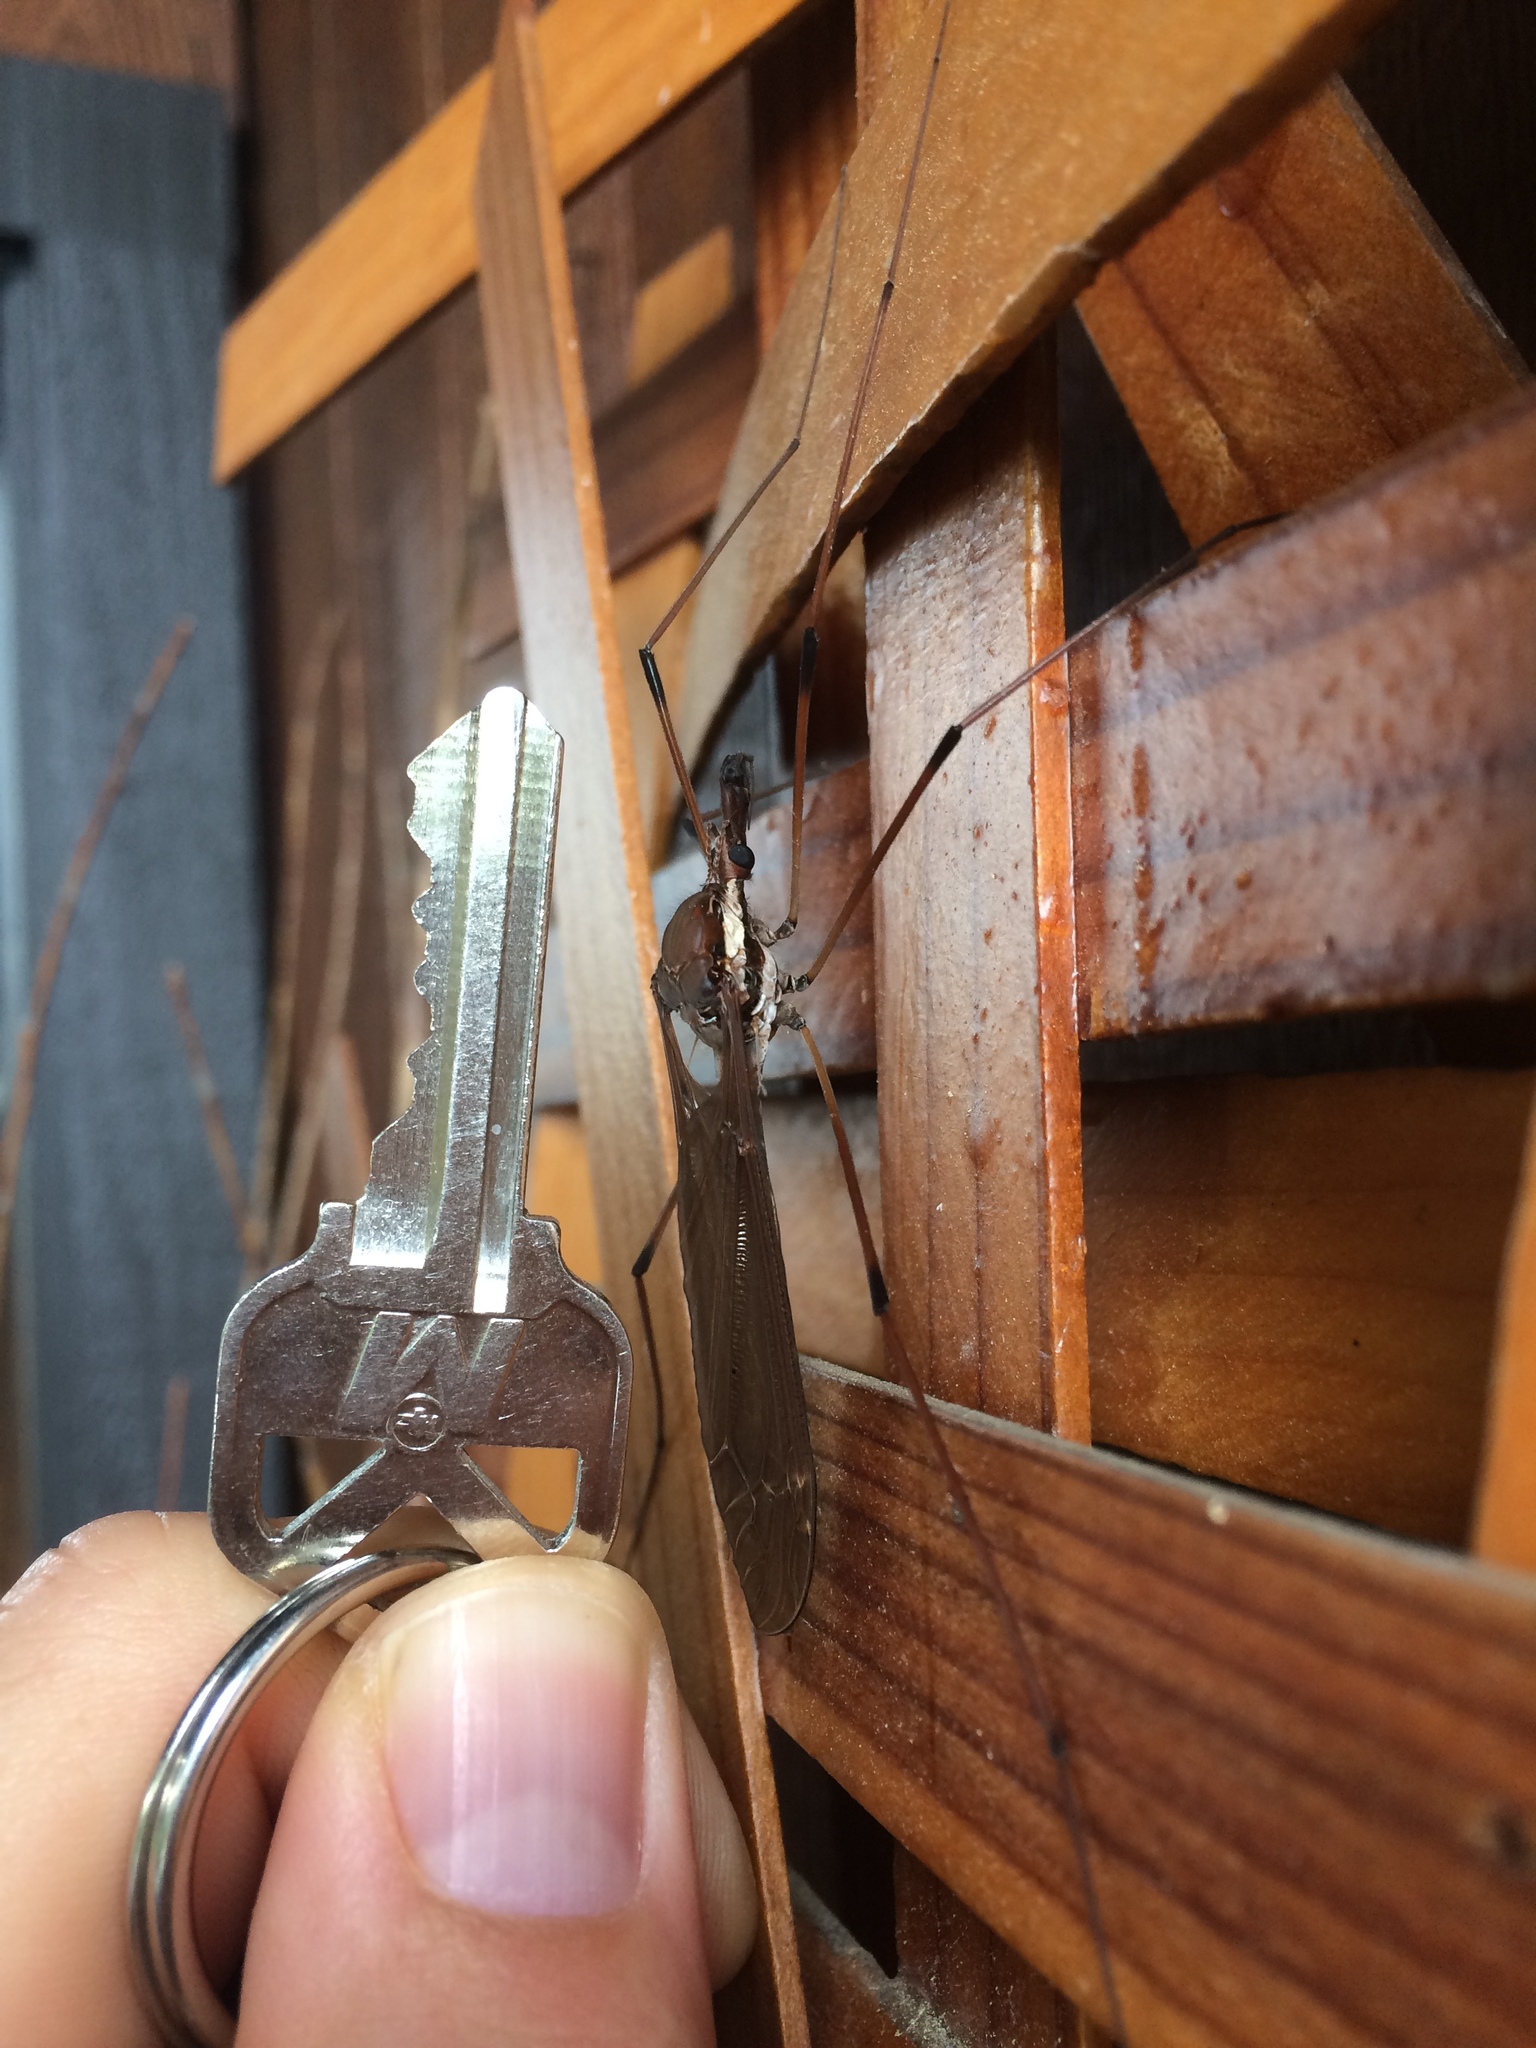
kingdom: Animalia
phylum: Arthropoda
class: Insecta
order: Diptera
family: Tipulidae
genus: Holorusia
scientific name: Holorusia hespera
